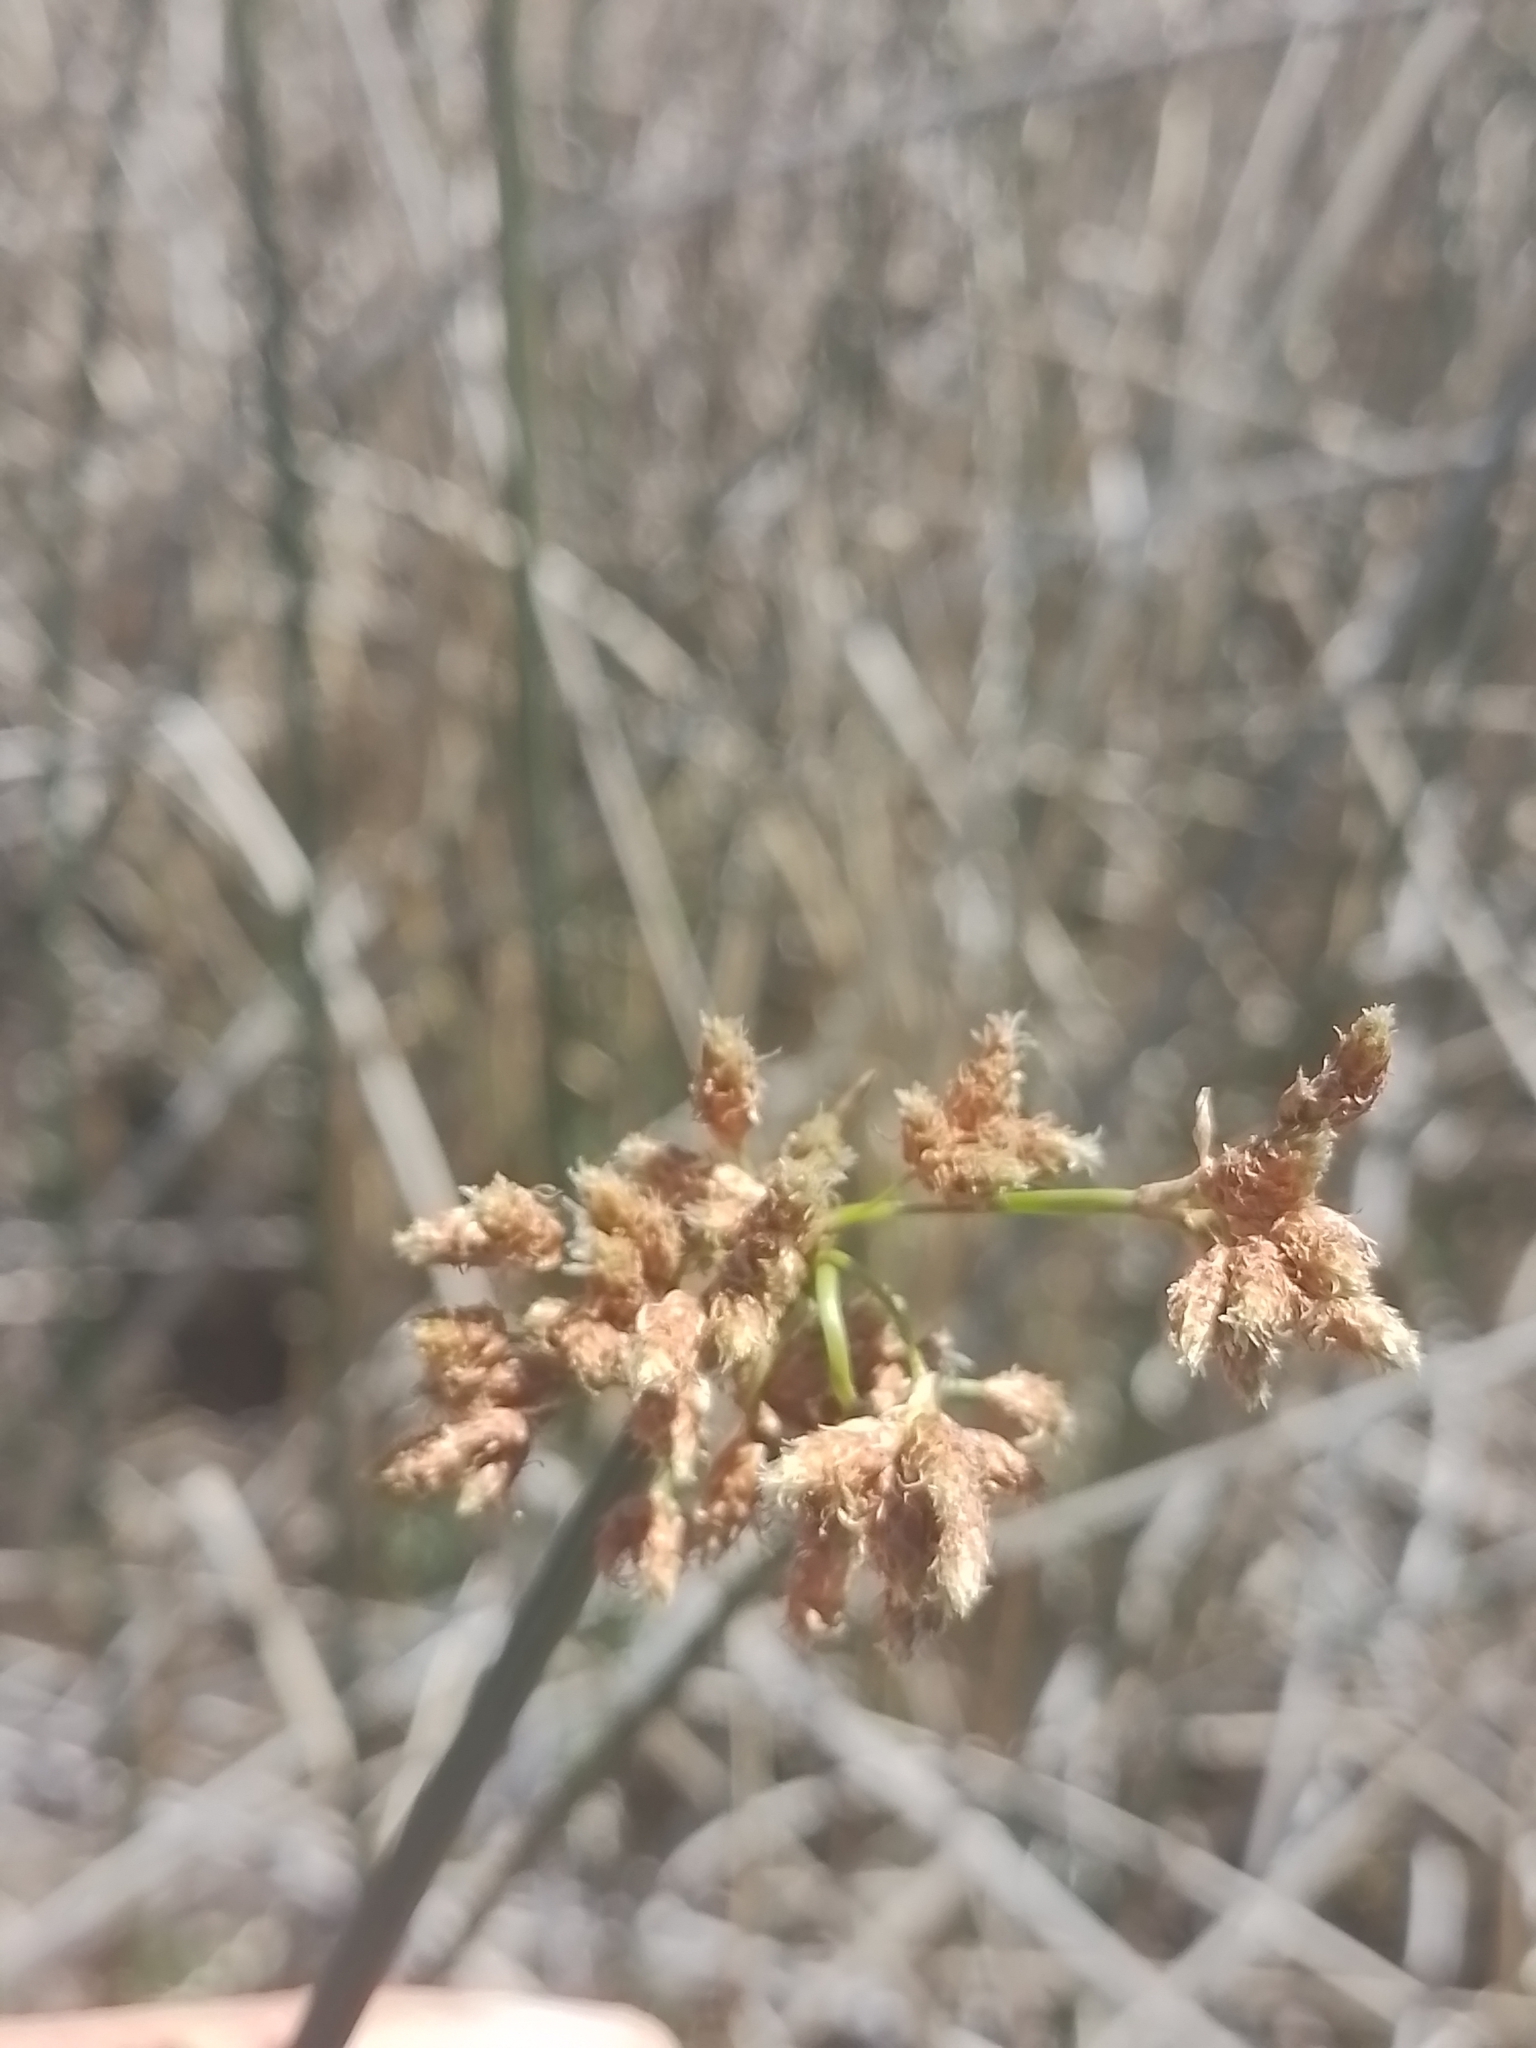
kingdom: Plantae
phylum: Tracheophyta
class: Liliopsida
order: Poales
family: Cyperaceae
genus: Schoenoplectus
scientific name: Schoenoplectus californicus
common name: California bulrush
